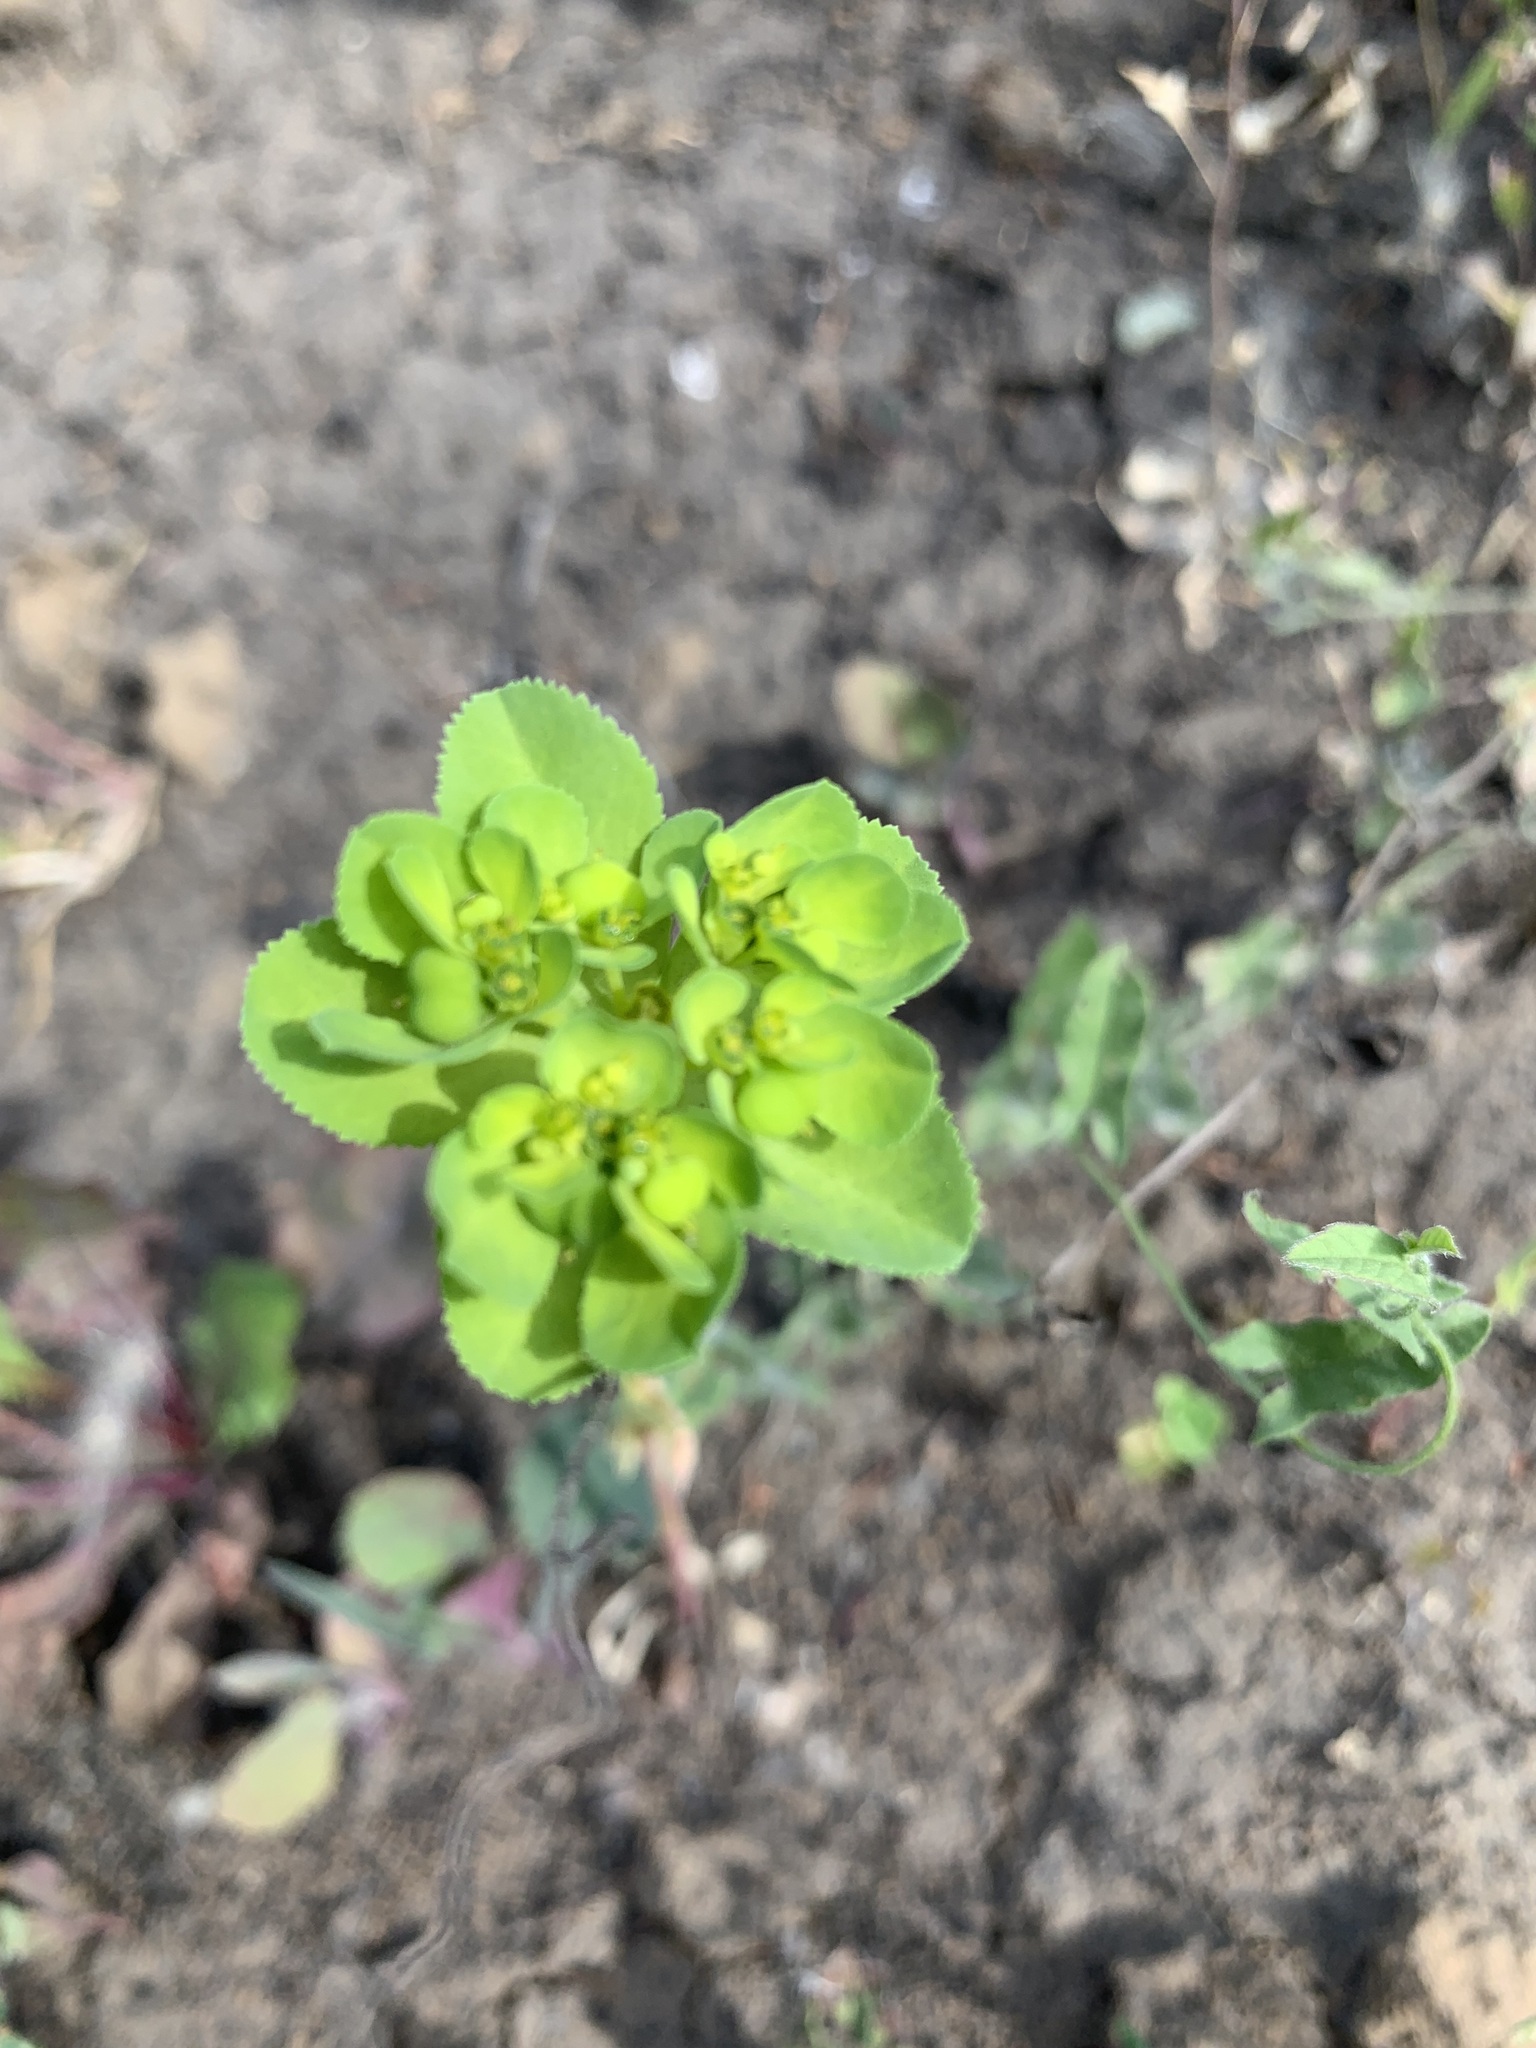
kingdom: Plantae
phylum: Tracheophyta
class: Magnoliopsida
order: Malpighiales
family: Euphorbiaceae
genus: Euphorbia
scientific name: Euphorbia helioscopia
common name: Sun spurge
